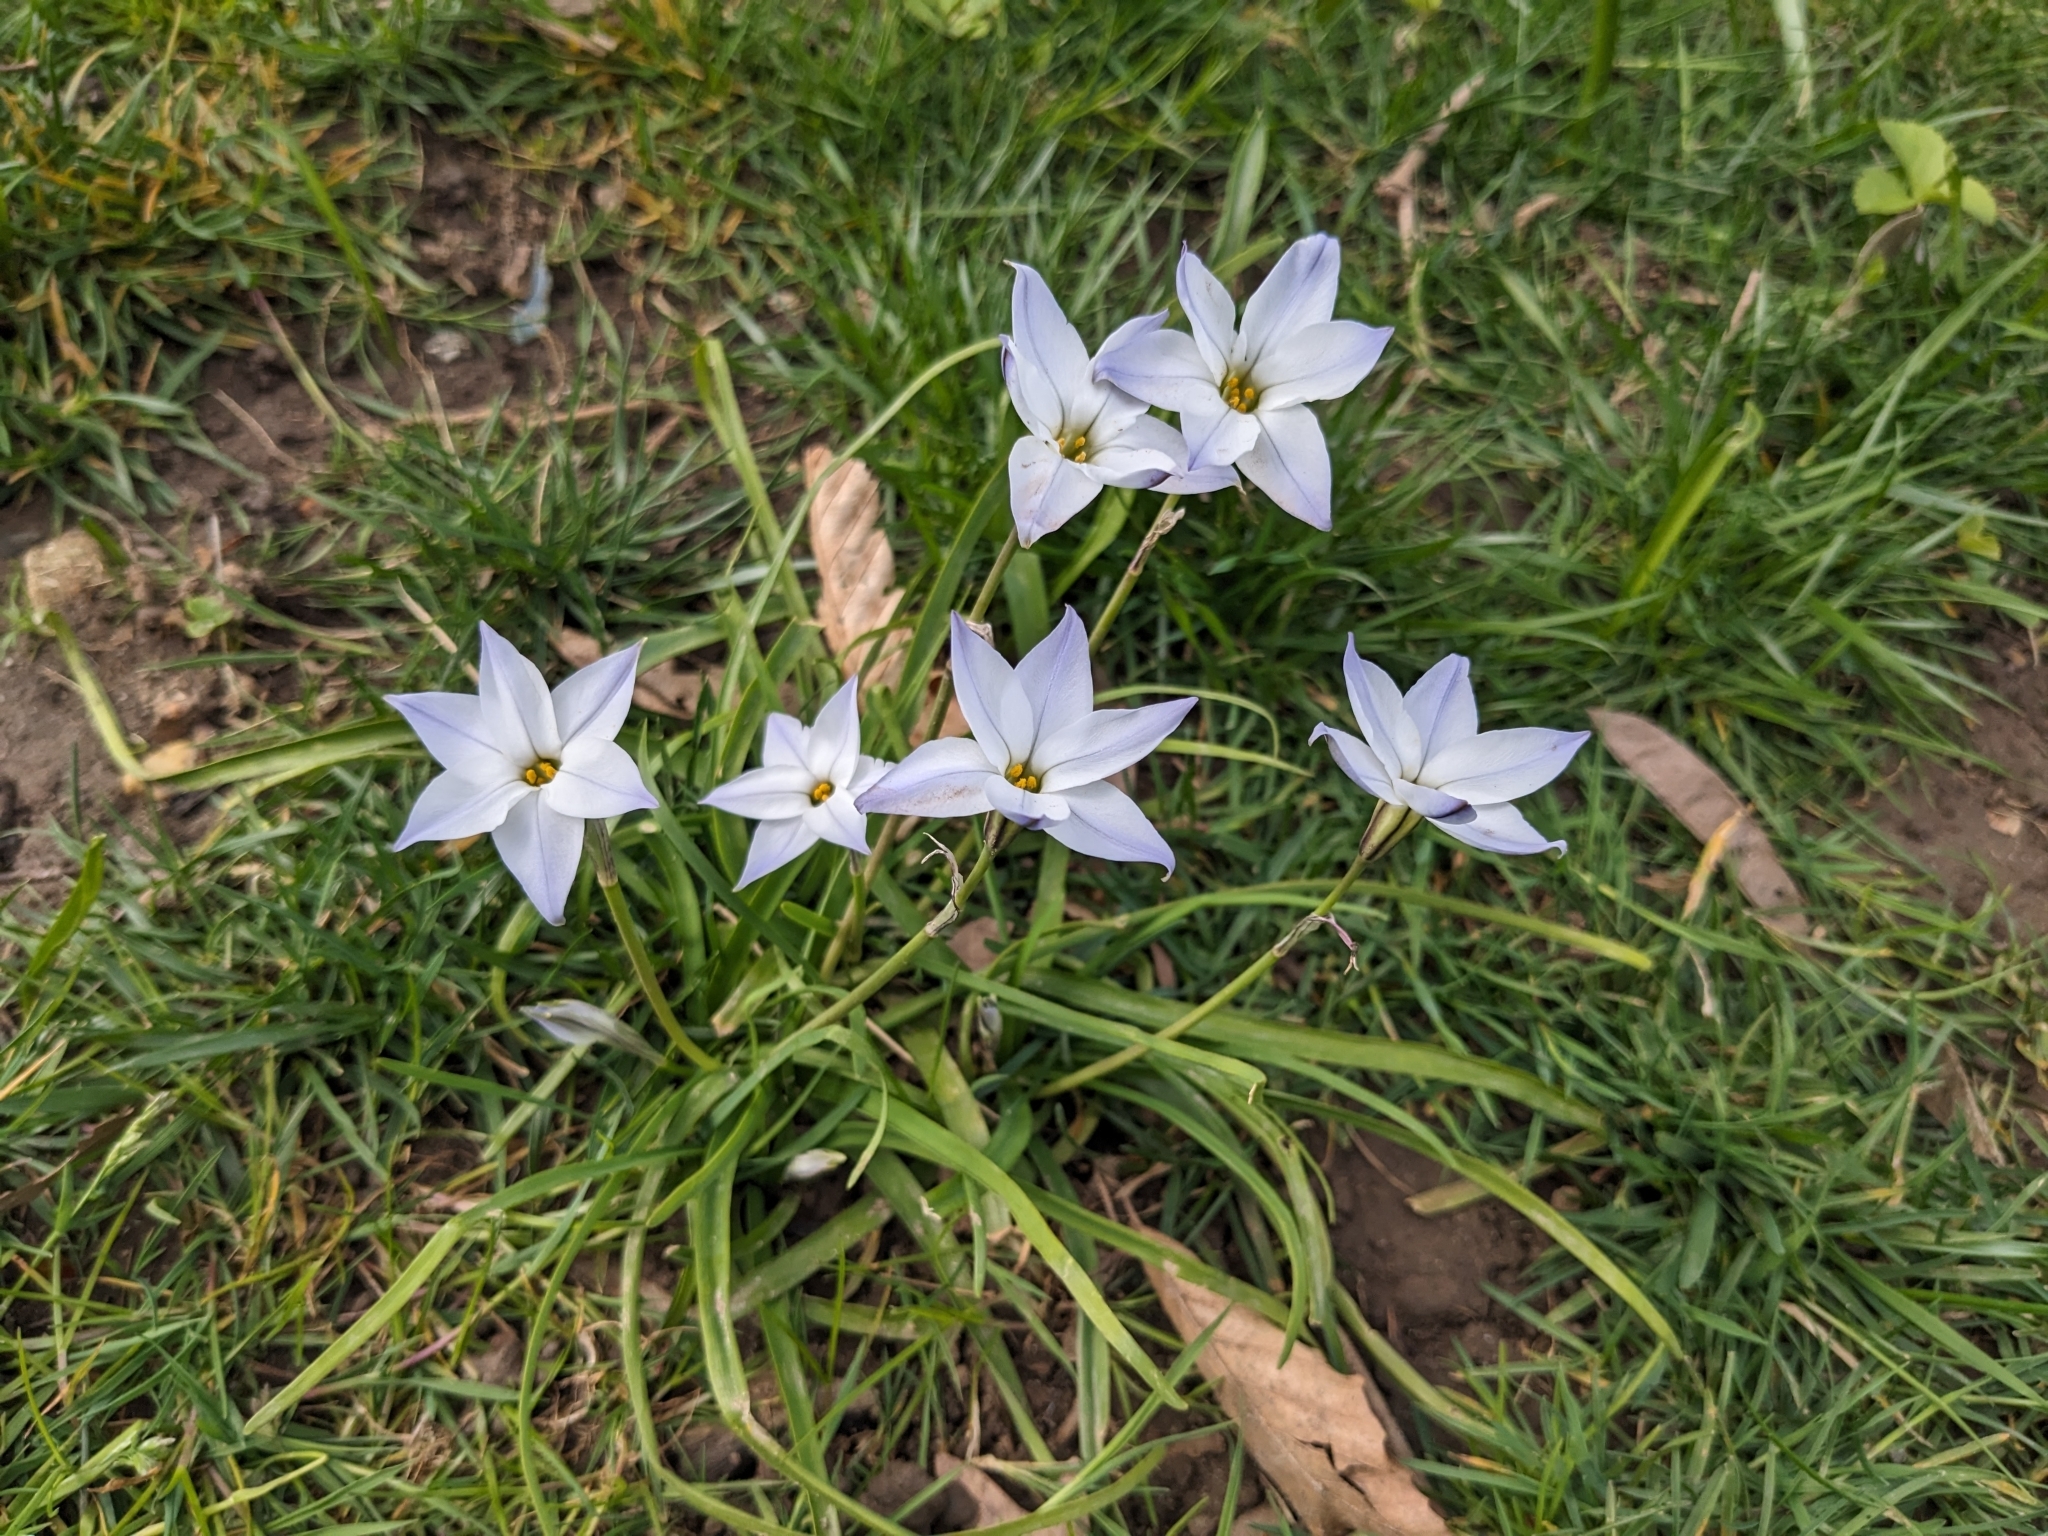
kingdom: Plantae
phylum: Tracheophyta
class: Liliopsida
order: Asparagales
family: Amaryllidaceae
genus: Ipheion
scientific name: Ipheion uniflorum
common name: Spring starflower
